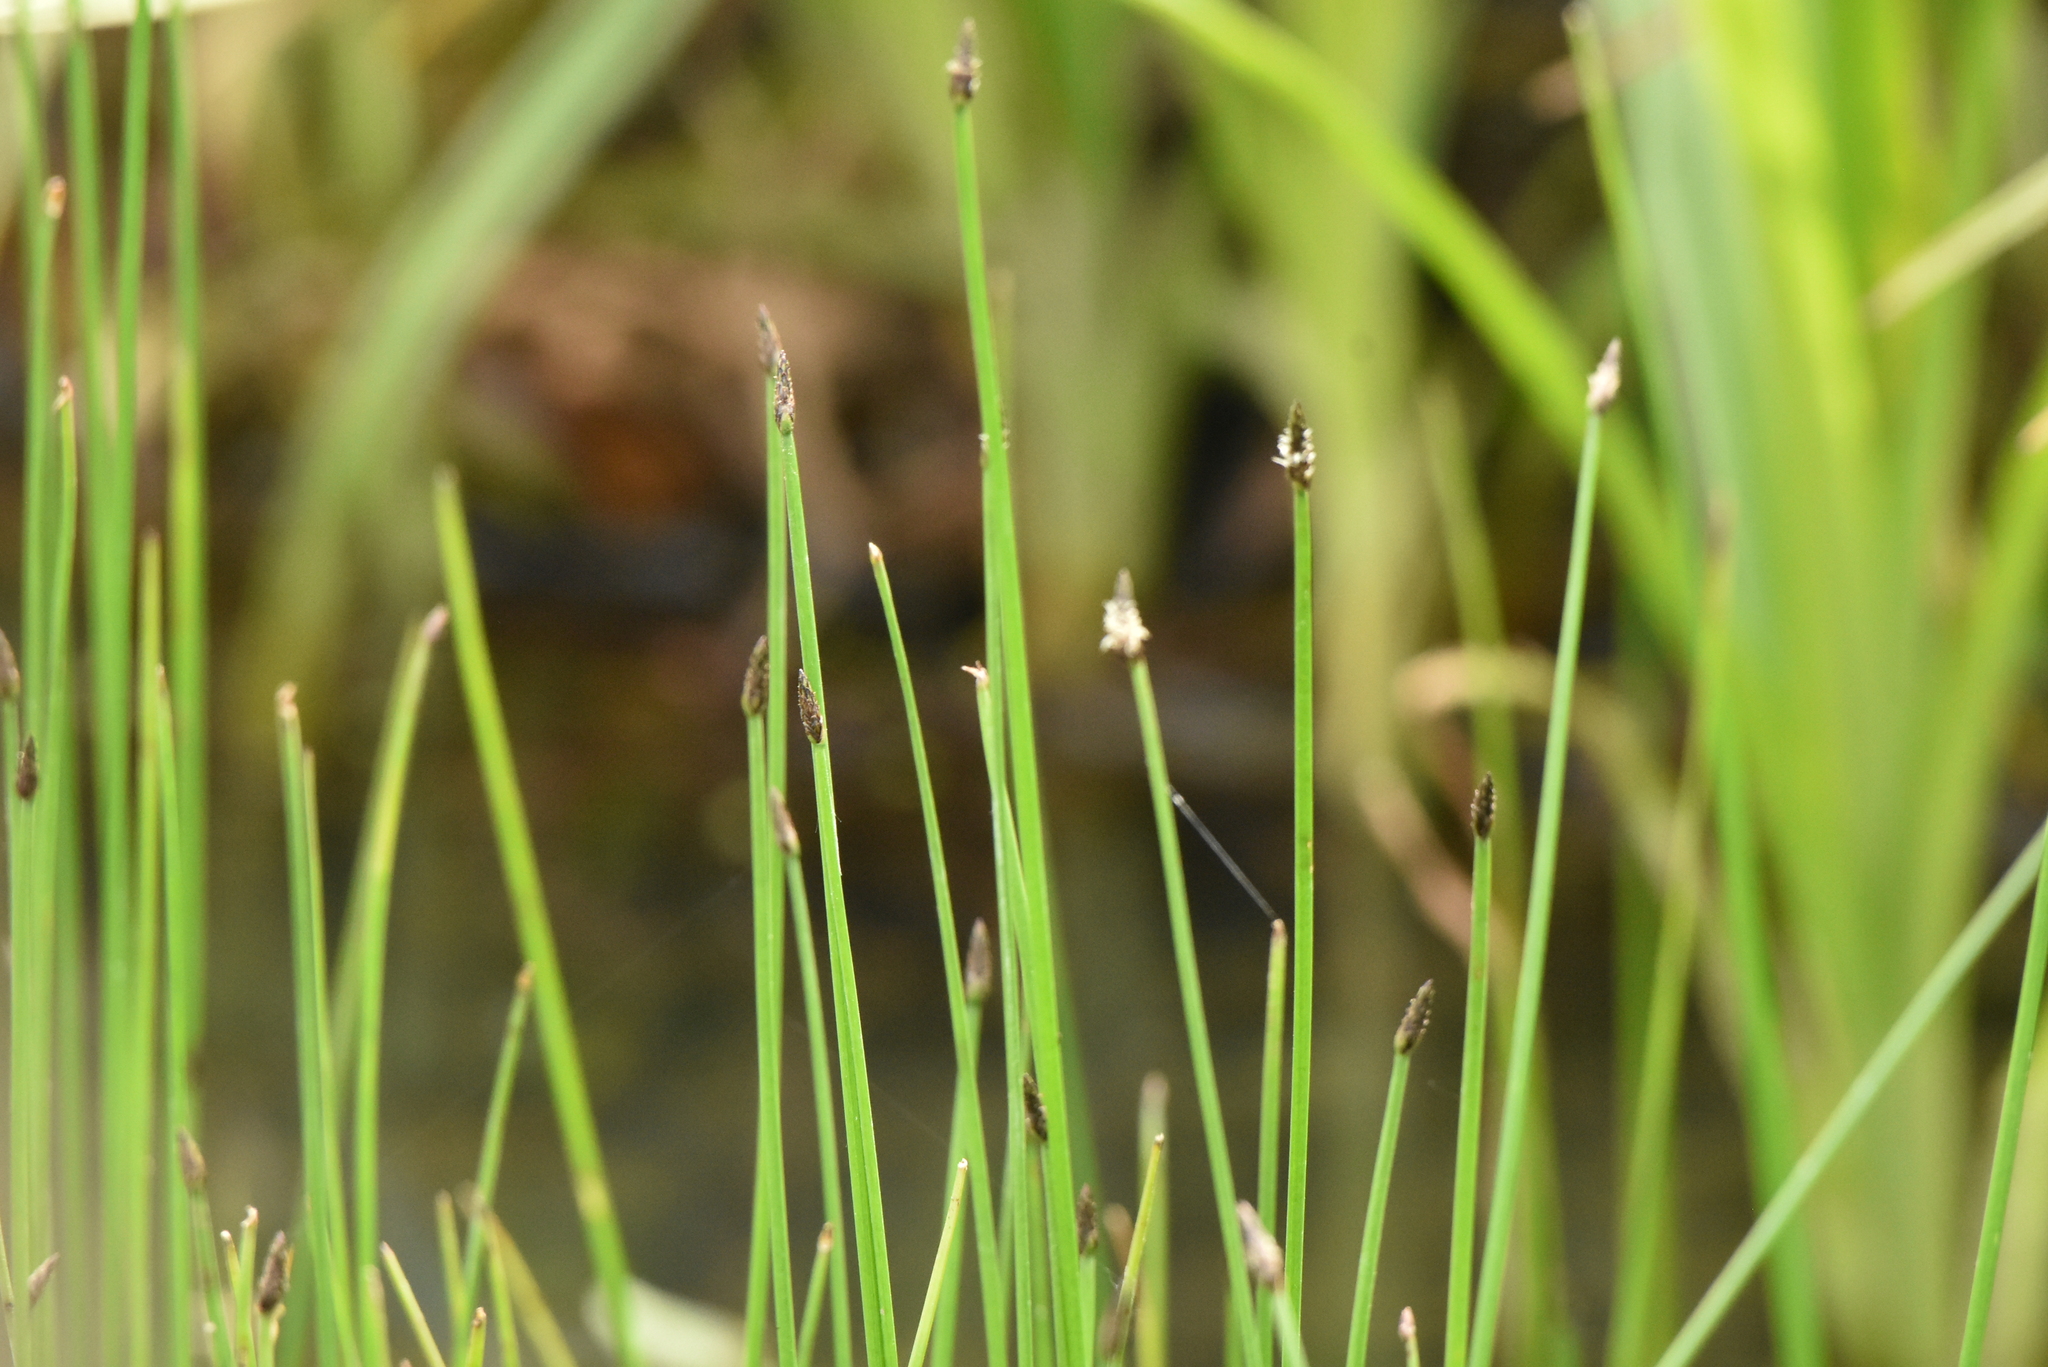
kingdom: Plantae
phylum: Tracheophyta
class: Liliopsida
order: Poales
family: Cyperaceae
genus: Eleocharis
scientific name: Eleocharis palustris
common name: Common spike-rush
